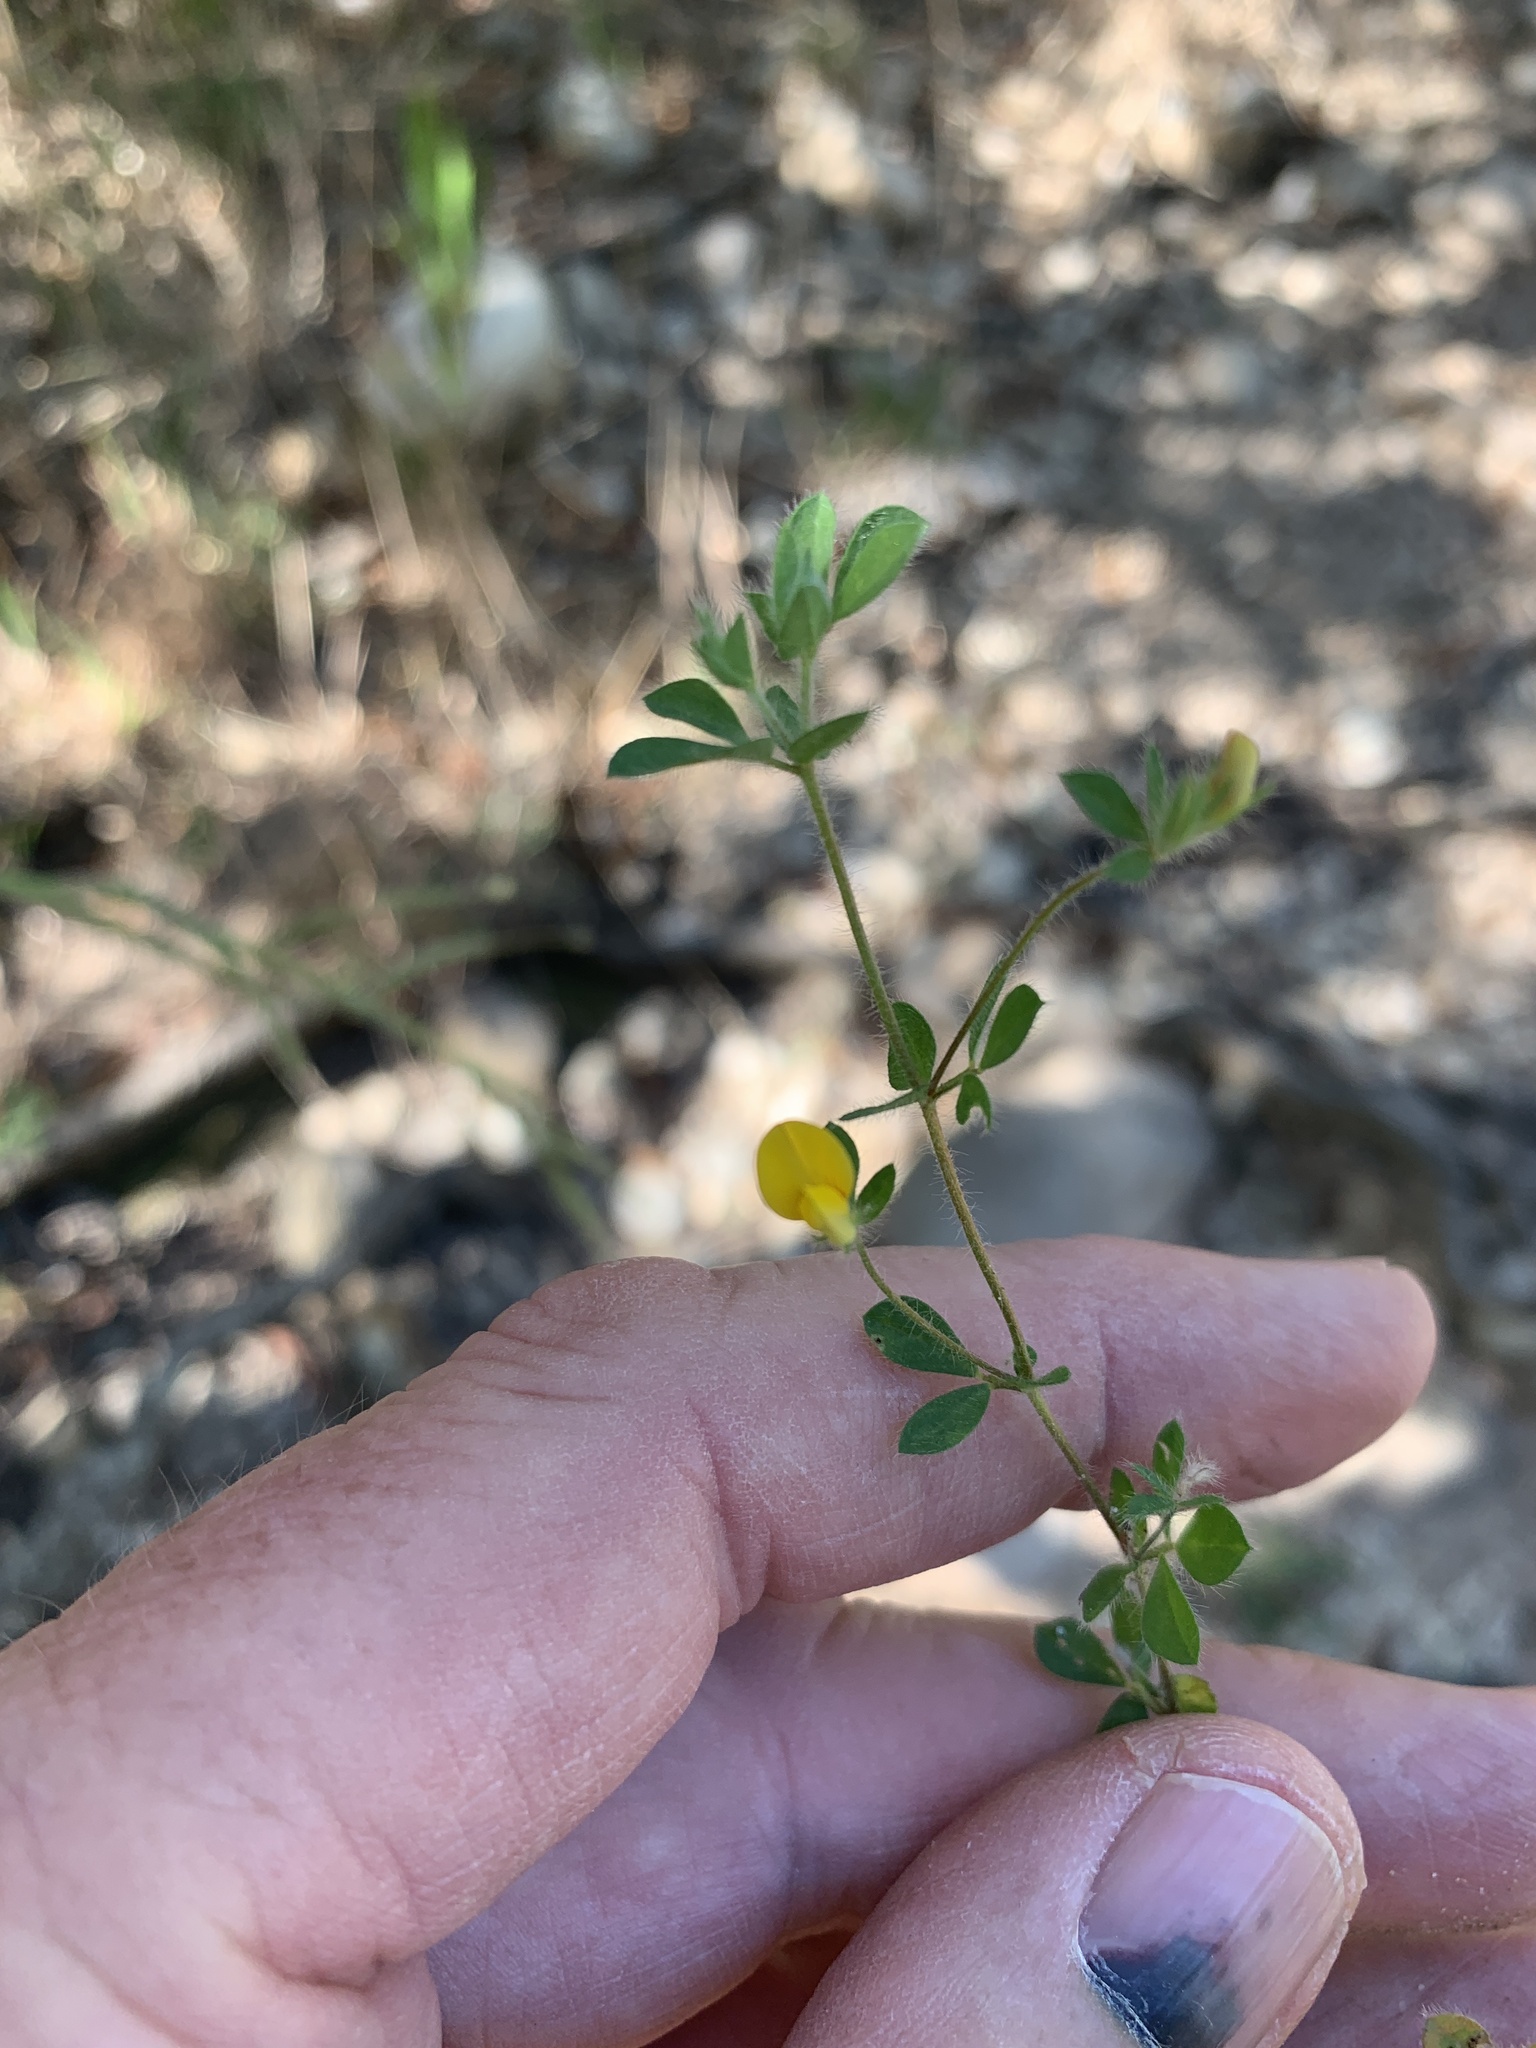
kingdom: Plantae
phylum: Tracheophyta
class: Magnoliopsida
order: Fabales
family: Fabaceae
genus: Lotus
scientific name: Lotus subbiflorus
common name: Hairy bird's-foot trefoil
